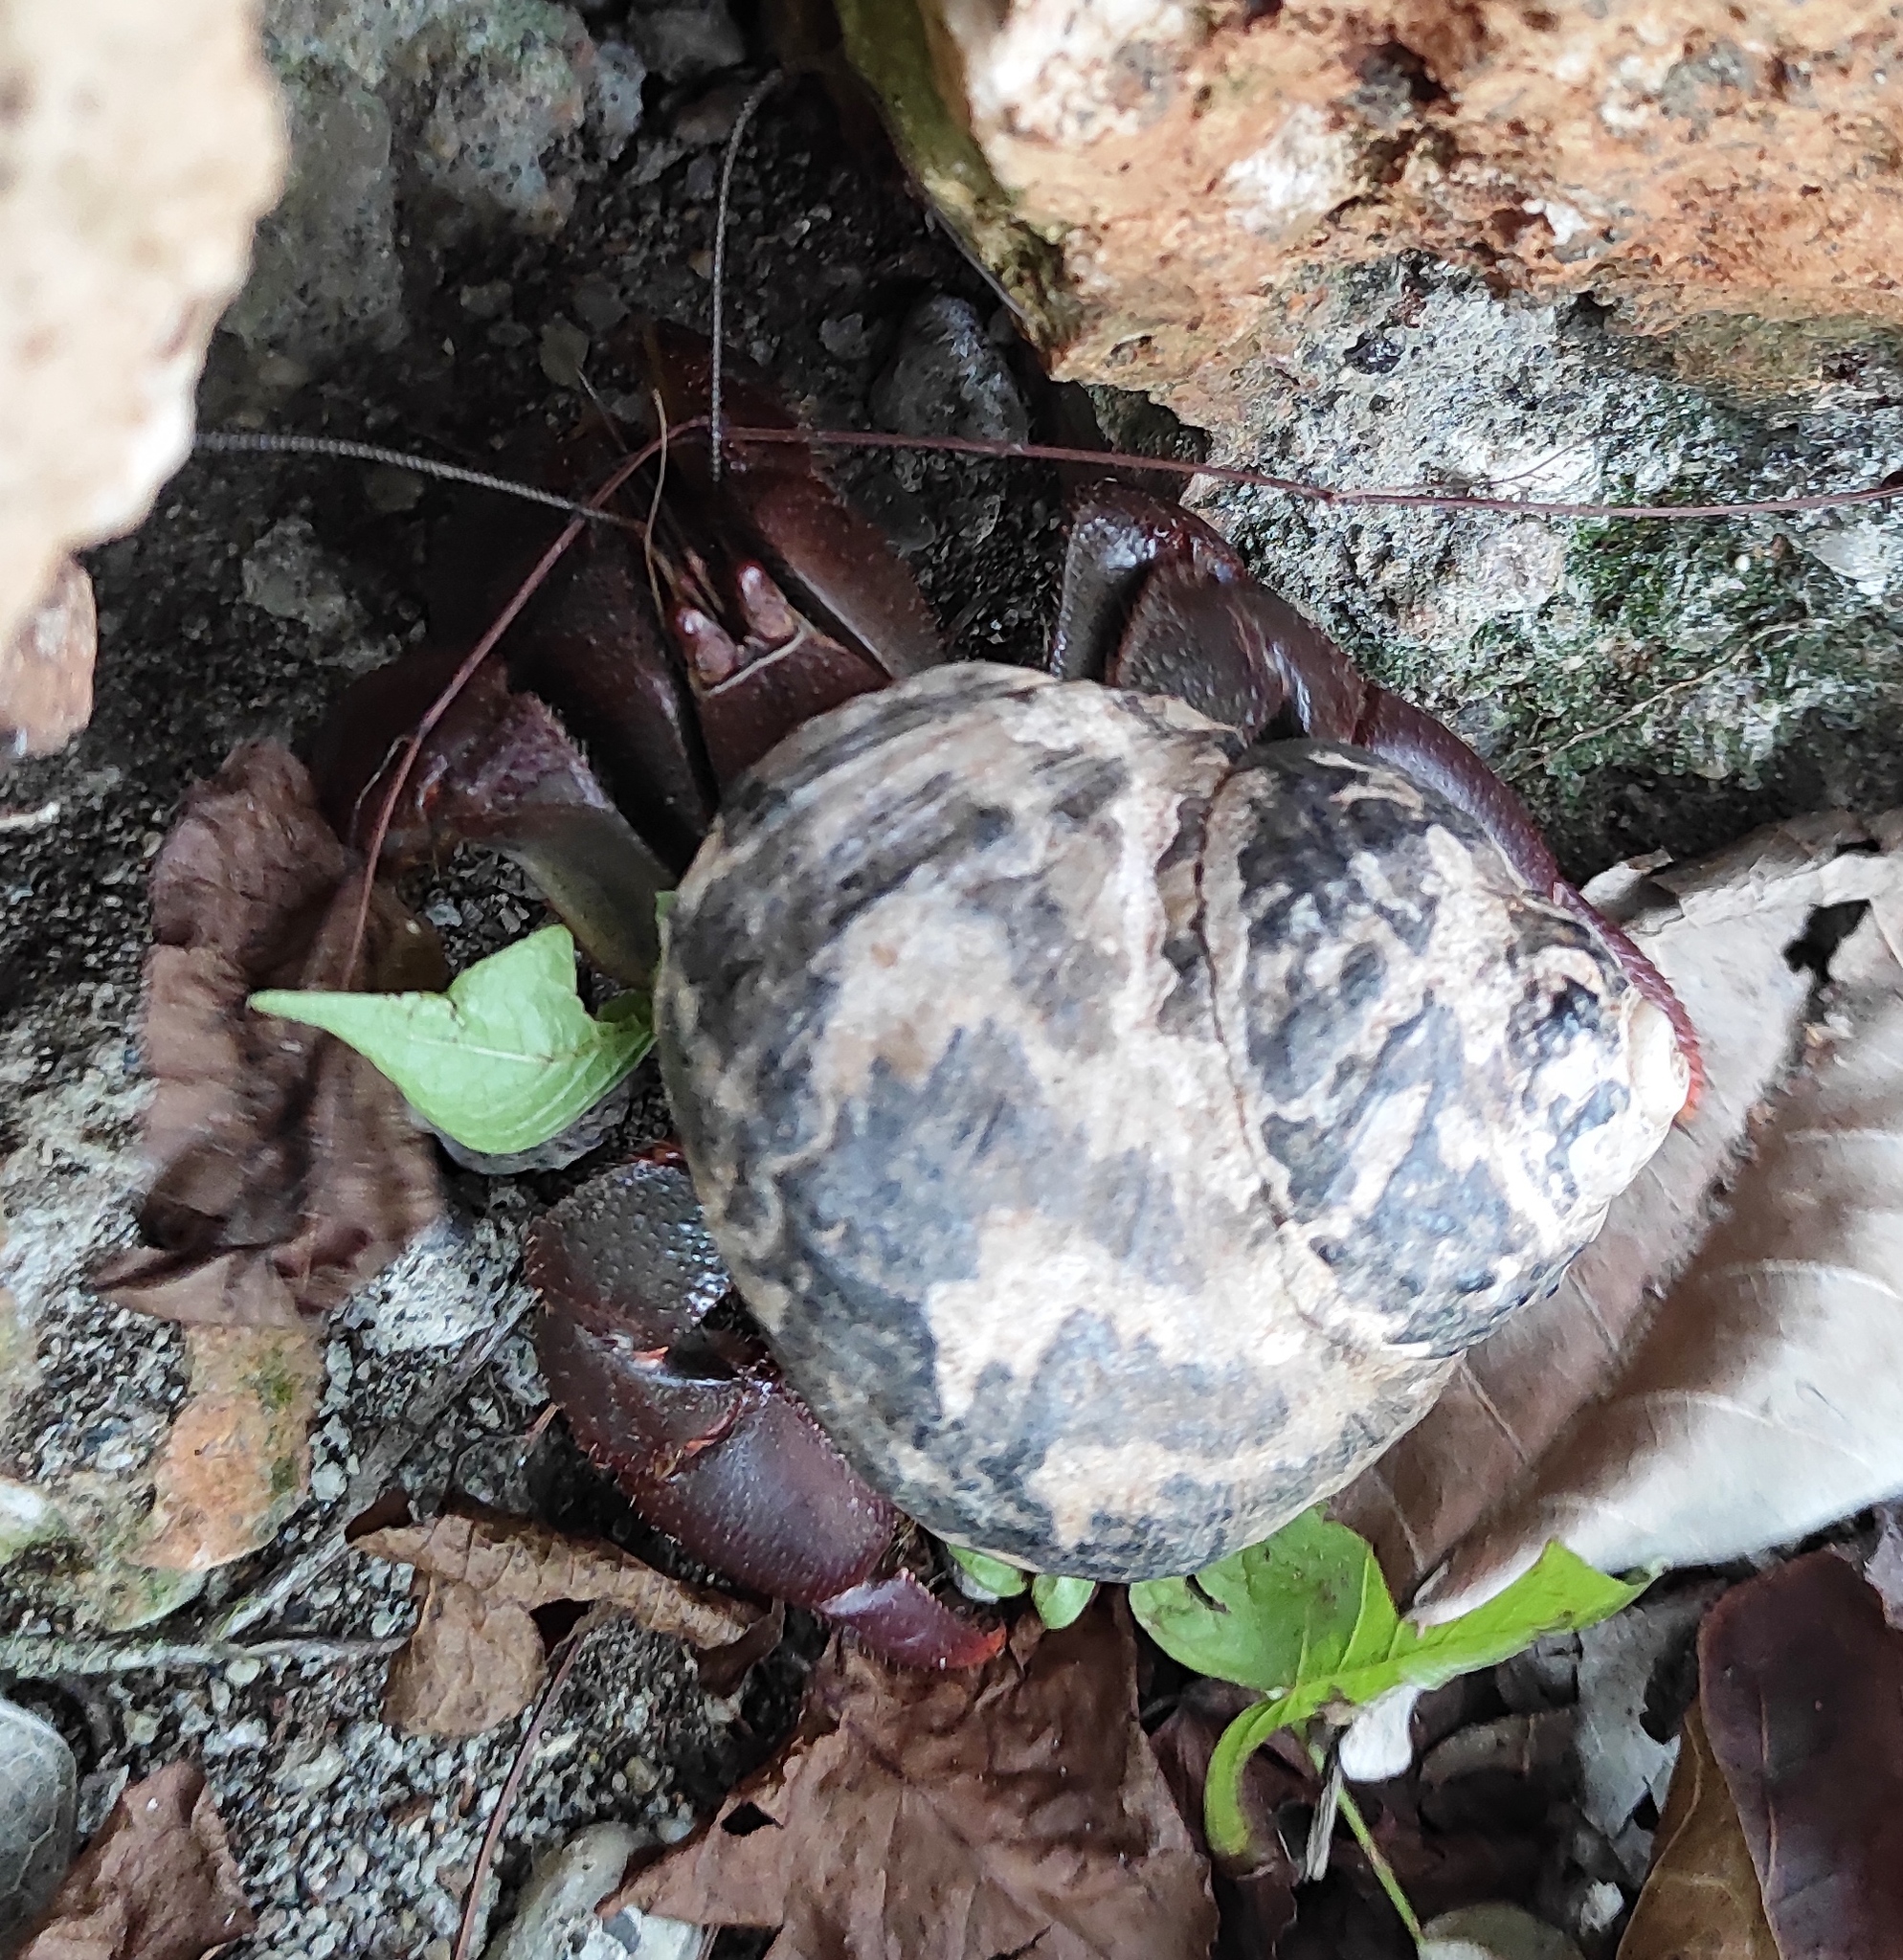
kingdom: Animalia
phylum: Mollusca
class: Gastropoda
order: Trochida
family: Tegulidae
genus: Cittarium
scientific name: Cittarium pica
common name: West indian topshell
